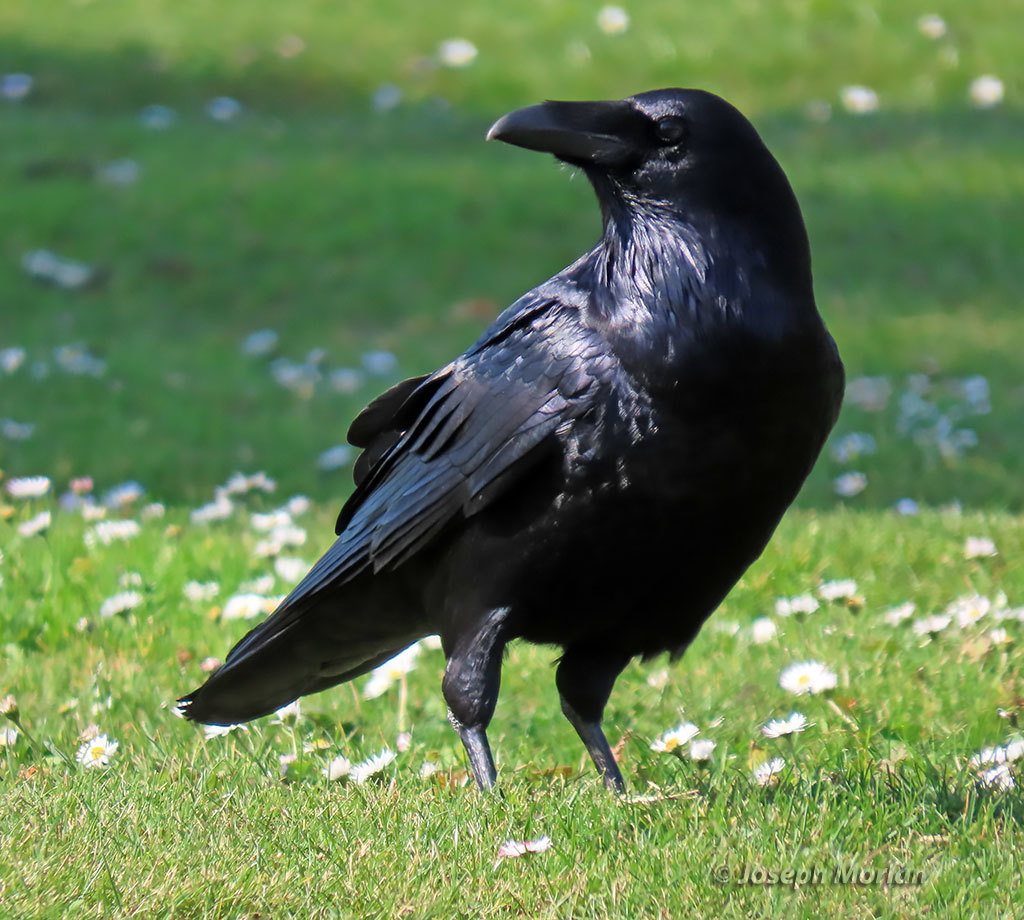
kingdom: Animalia
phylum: Chordata
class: Aves
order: Passeriformes
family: Corvidae
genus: Corvus
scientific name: Corvus corax
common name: Common raven
